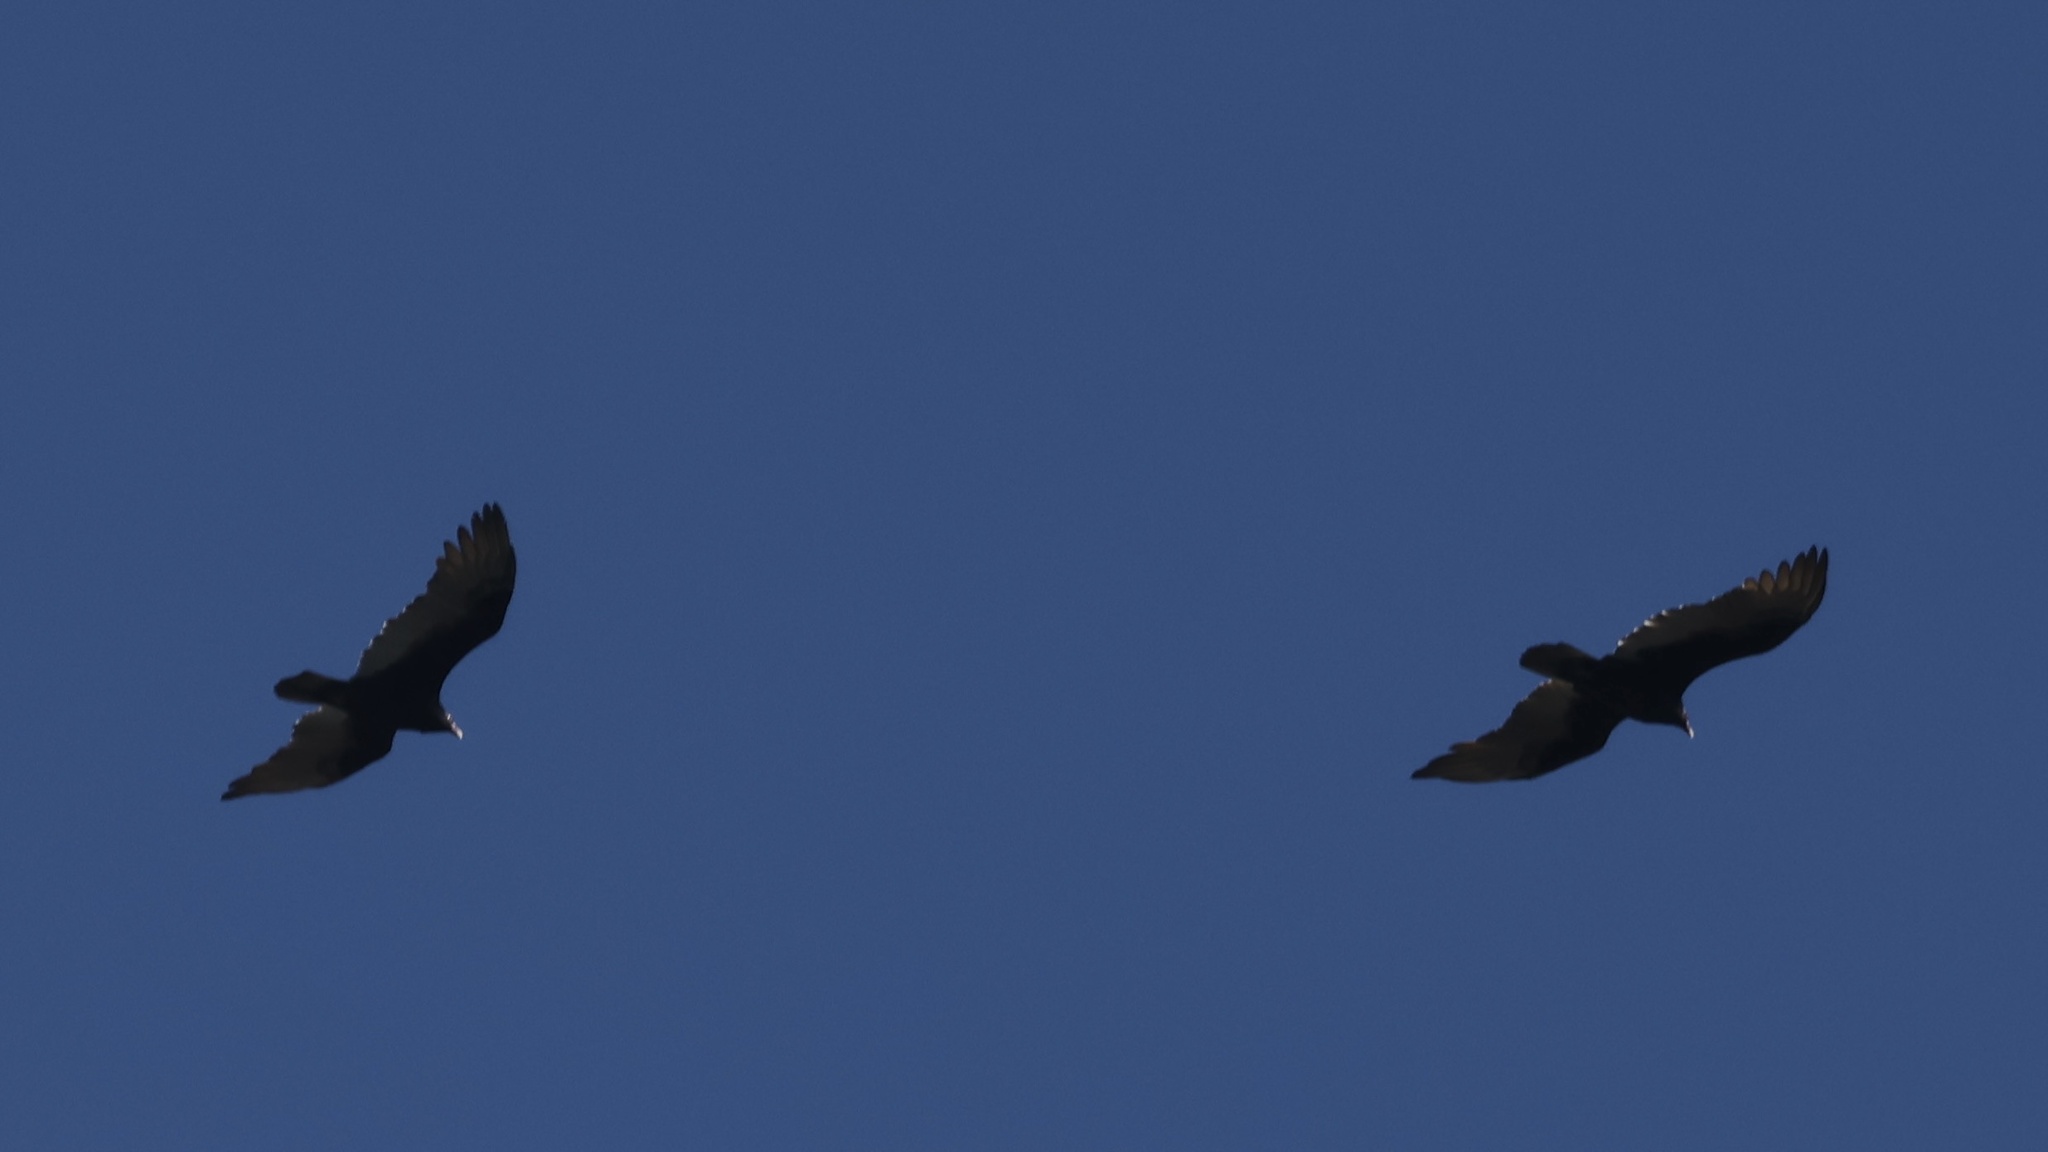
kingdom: Animalia
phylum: Chordata
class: Aves
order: Accipitriformes
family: Cathartidae
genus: Cathartes
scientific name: Cathartes aura
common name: Turkey vulture
